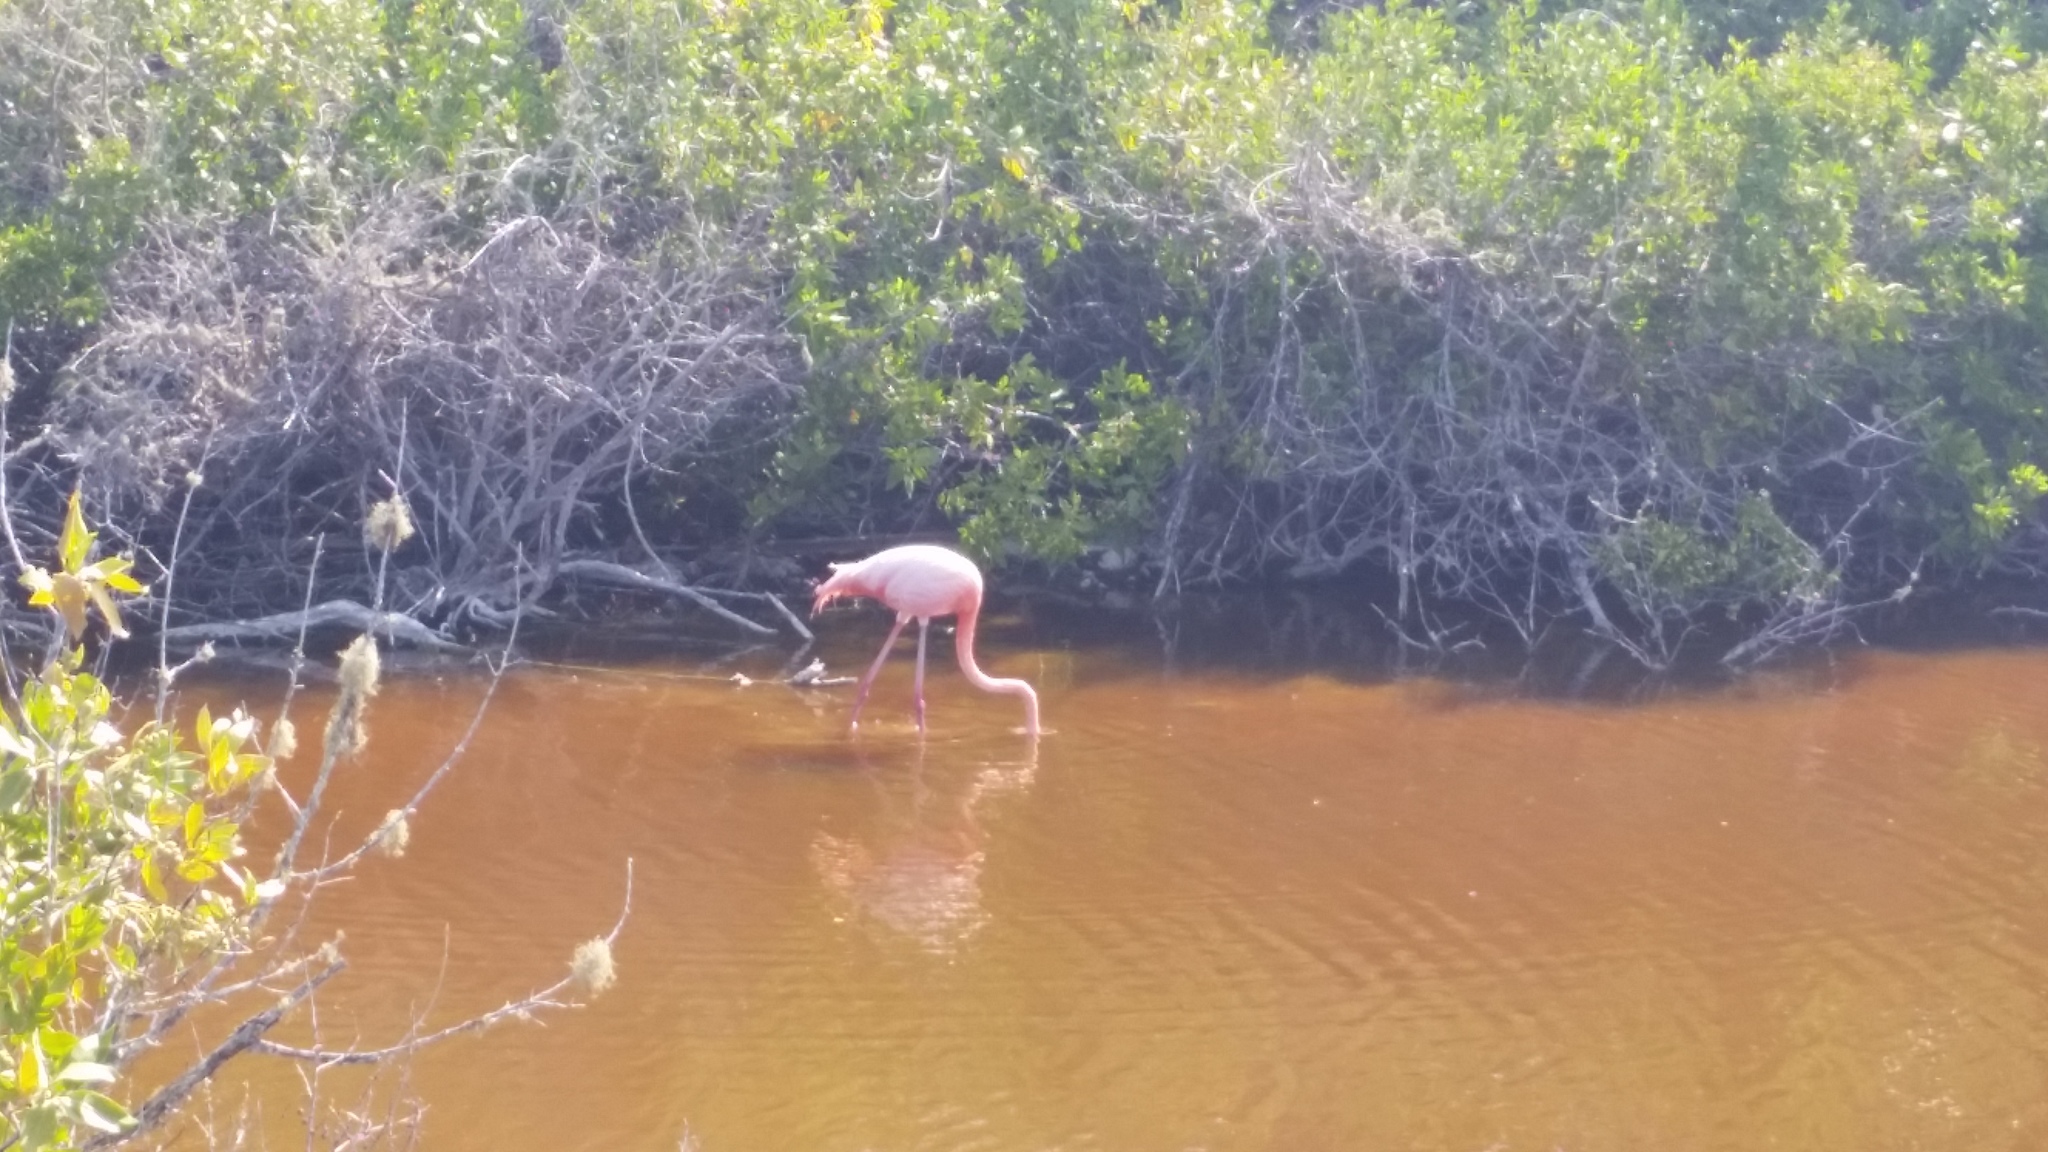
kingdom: Animalia
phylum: Chordata
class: Aves
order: Phoenicopteriformes
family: Phoenicopteridae
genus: Phoenicopterus
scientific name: Phoenicopterus ruber
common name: American flamingo
